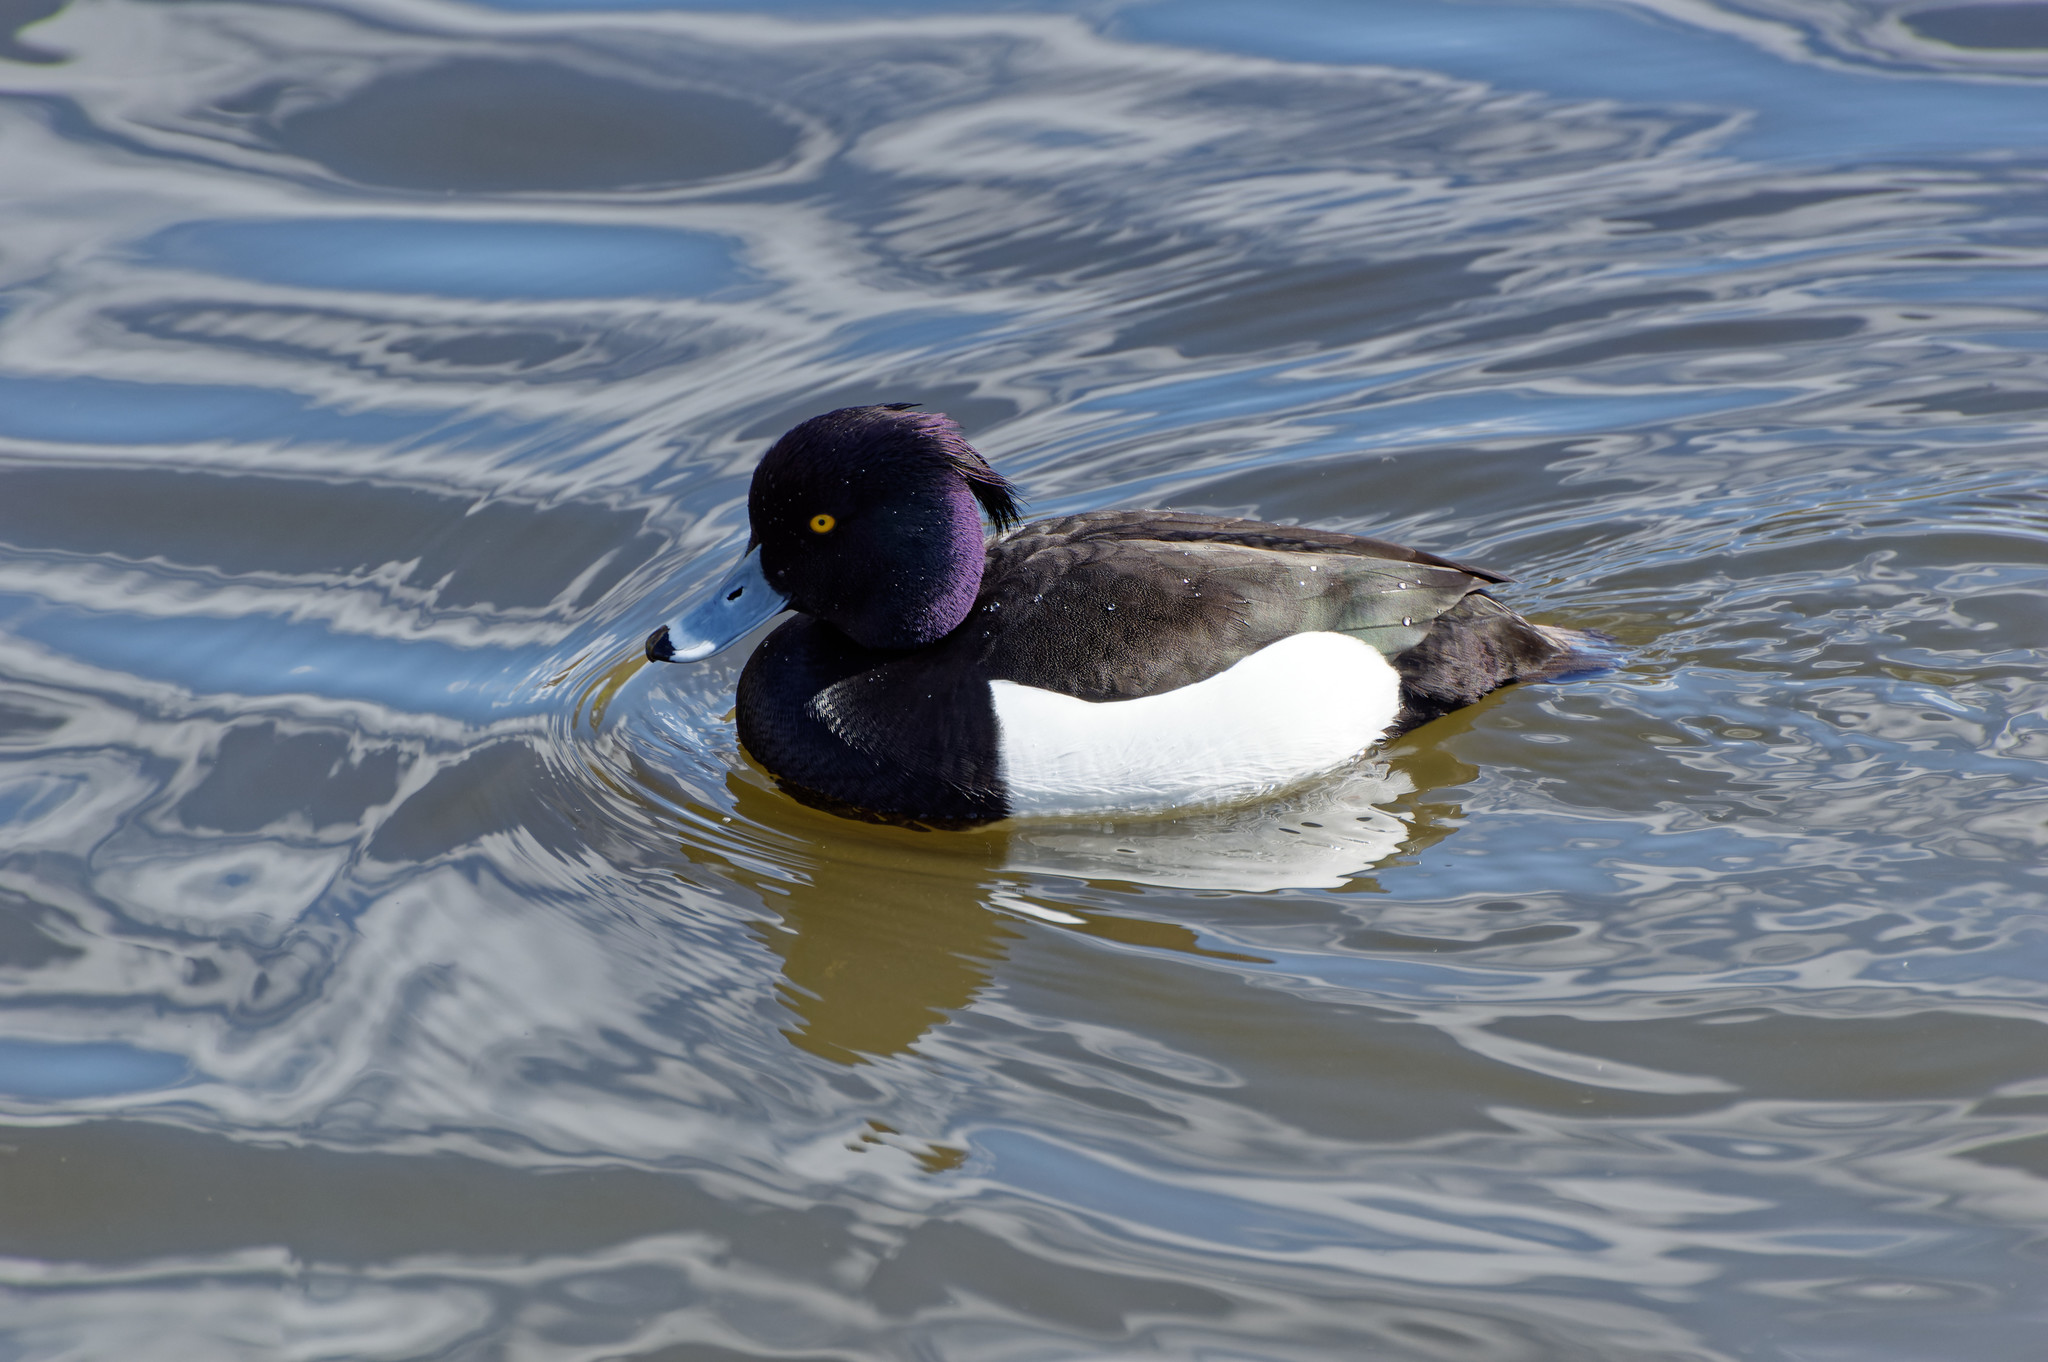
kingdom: Animalia
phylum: Chordata
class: Aves
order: Anseriformes
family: Anatidae
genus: Aythya
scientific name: Aythya fuligula
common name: Tufted duck
